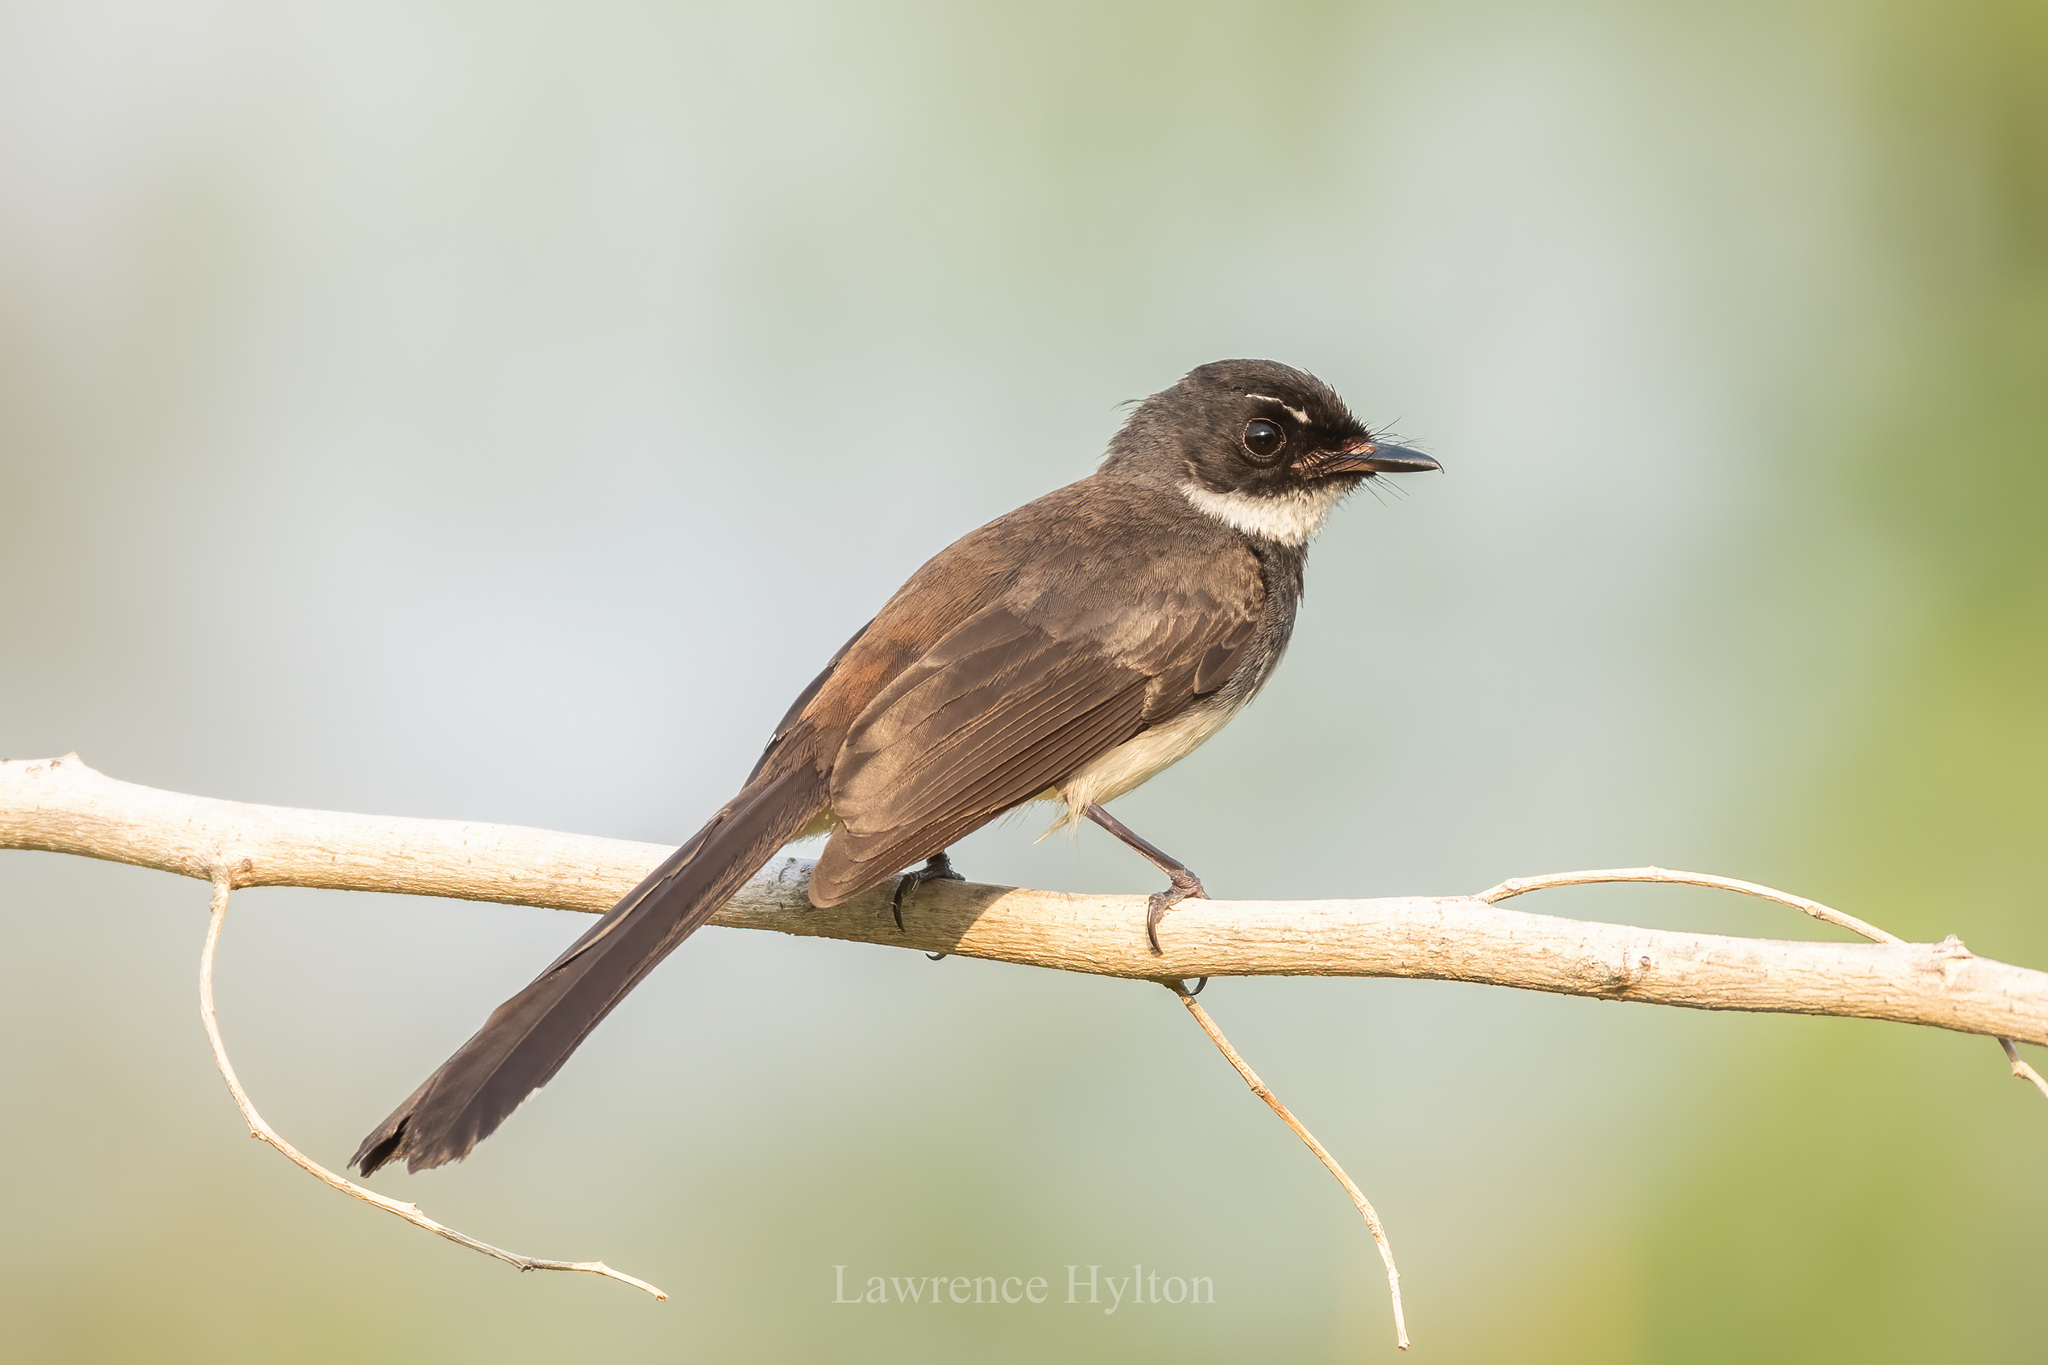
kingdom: Animalia
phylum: Chordata
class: Aves
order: Passeriformes
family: Rhipiduridae
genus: Rhipidura
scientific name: Rhipidura javanica
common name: Pied fantail
